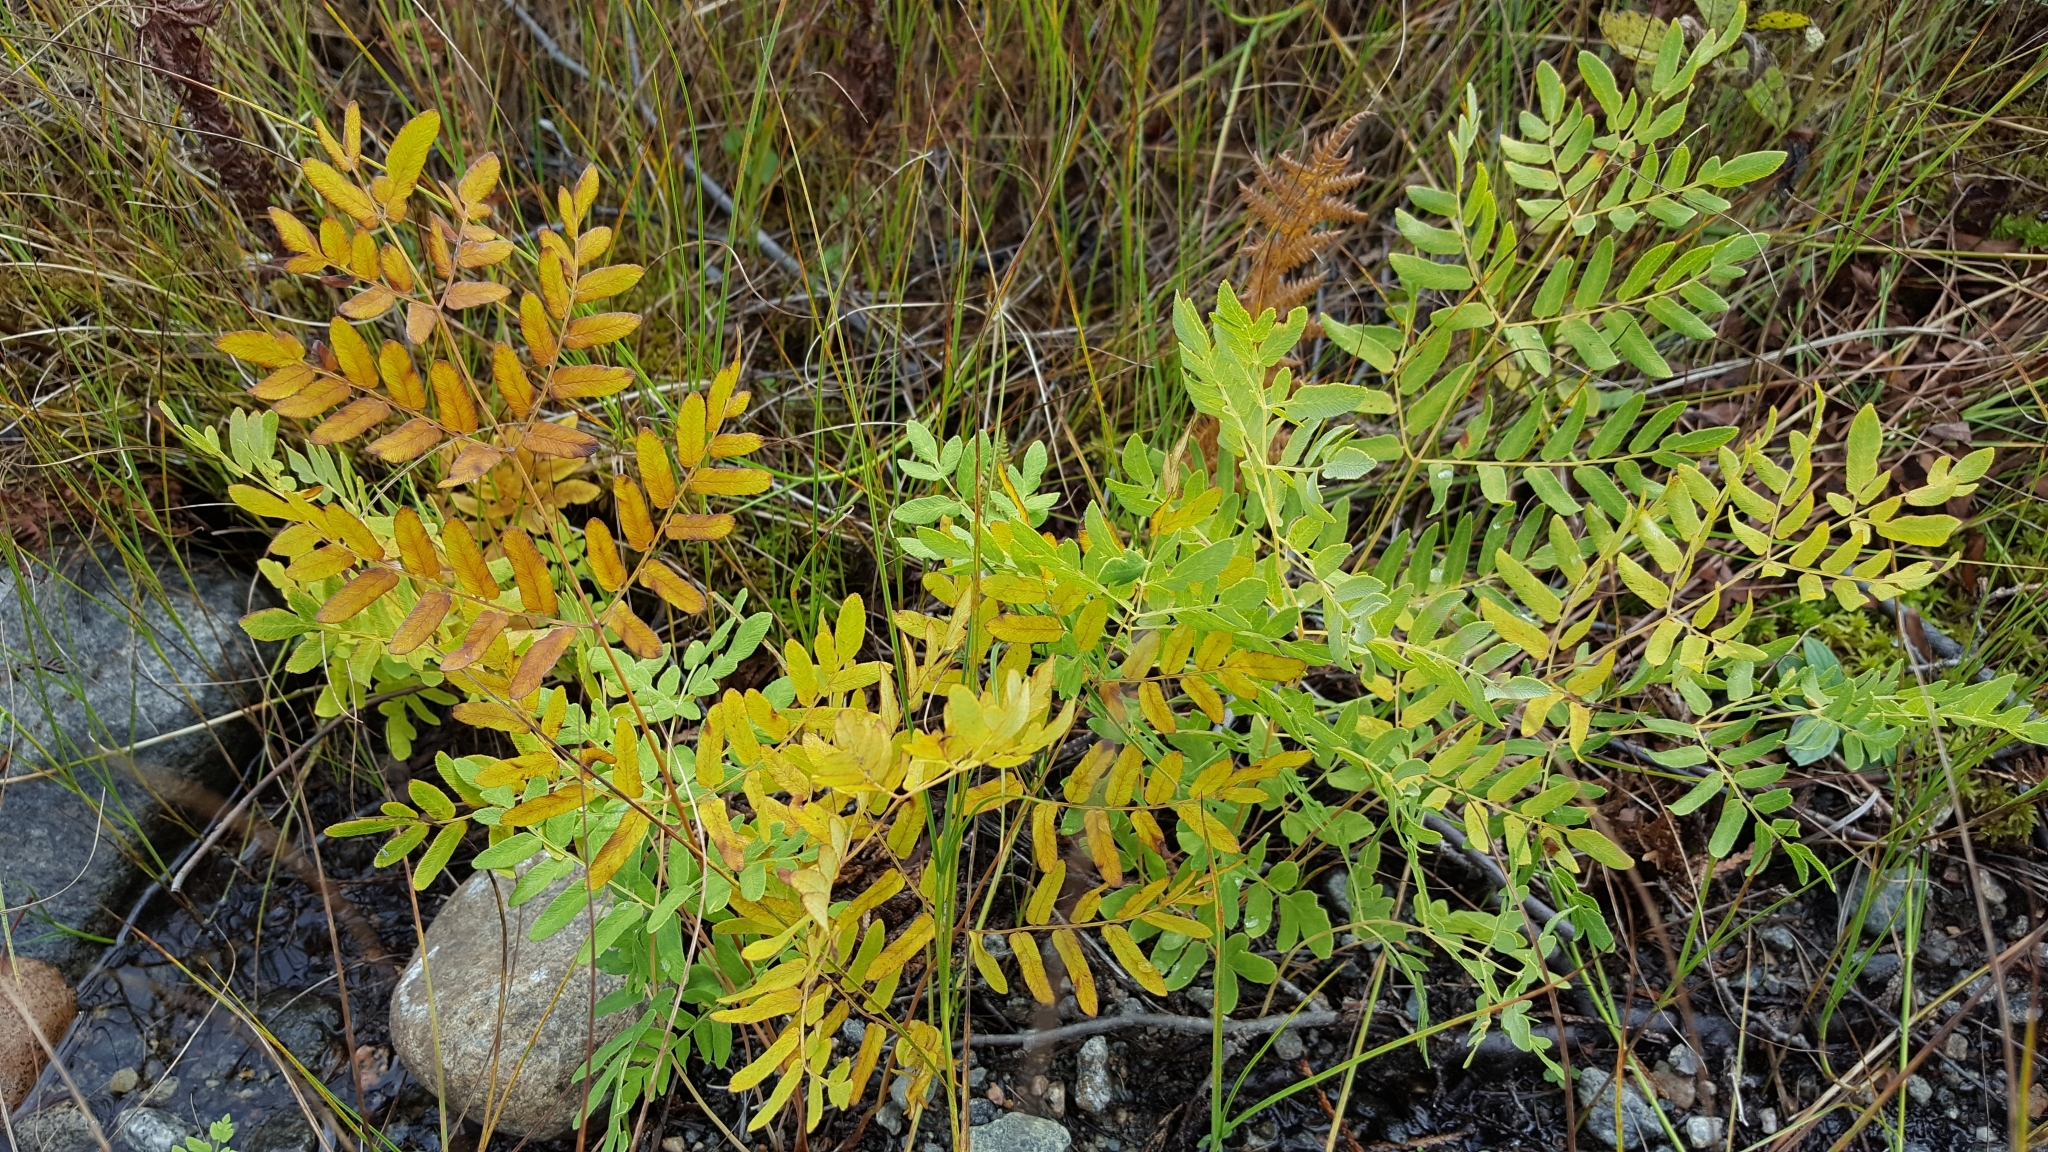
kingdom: Plantae
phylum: Tracheophyta
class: Polypodiopsida
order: Osmundales
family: Osmundaceae
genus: Osmunda
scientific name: Osmunda spectabilis
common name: American royal fern
